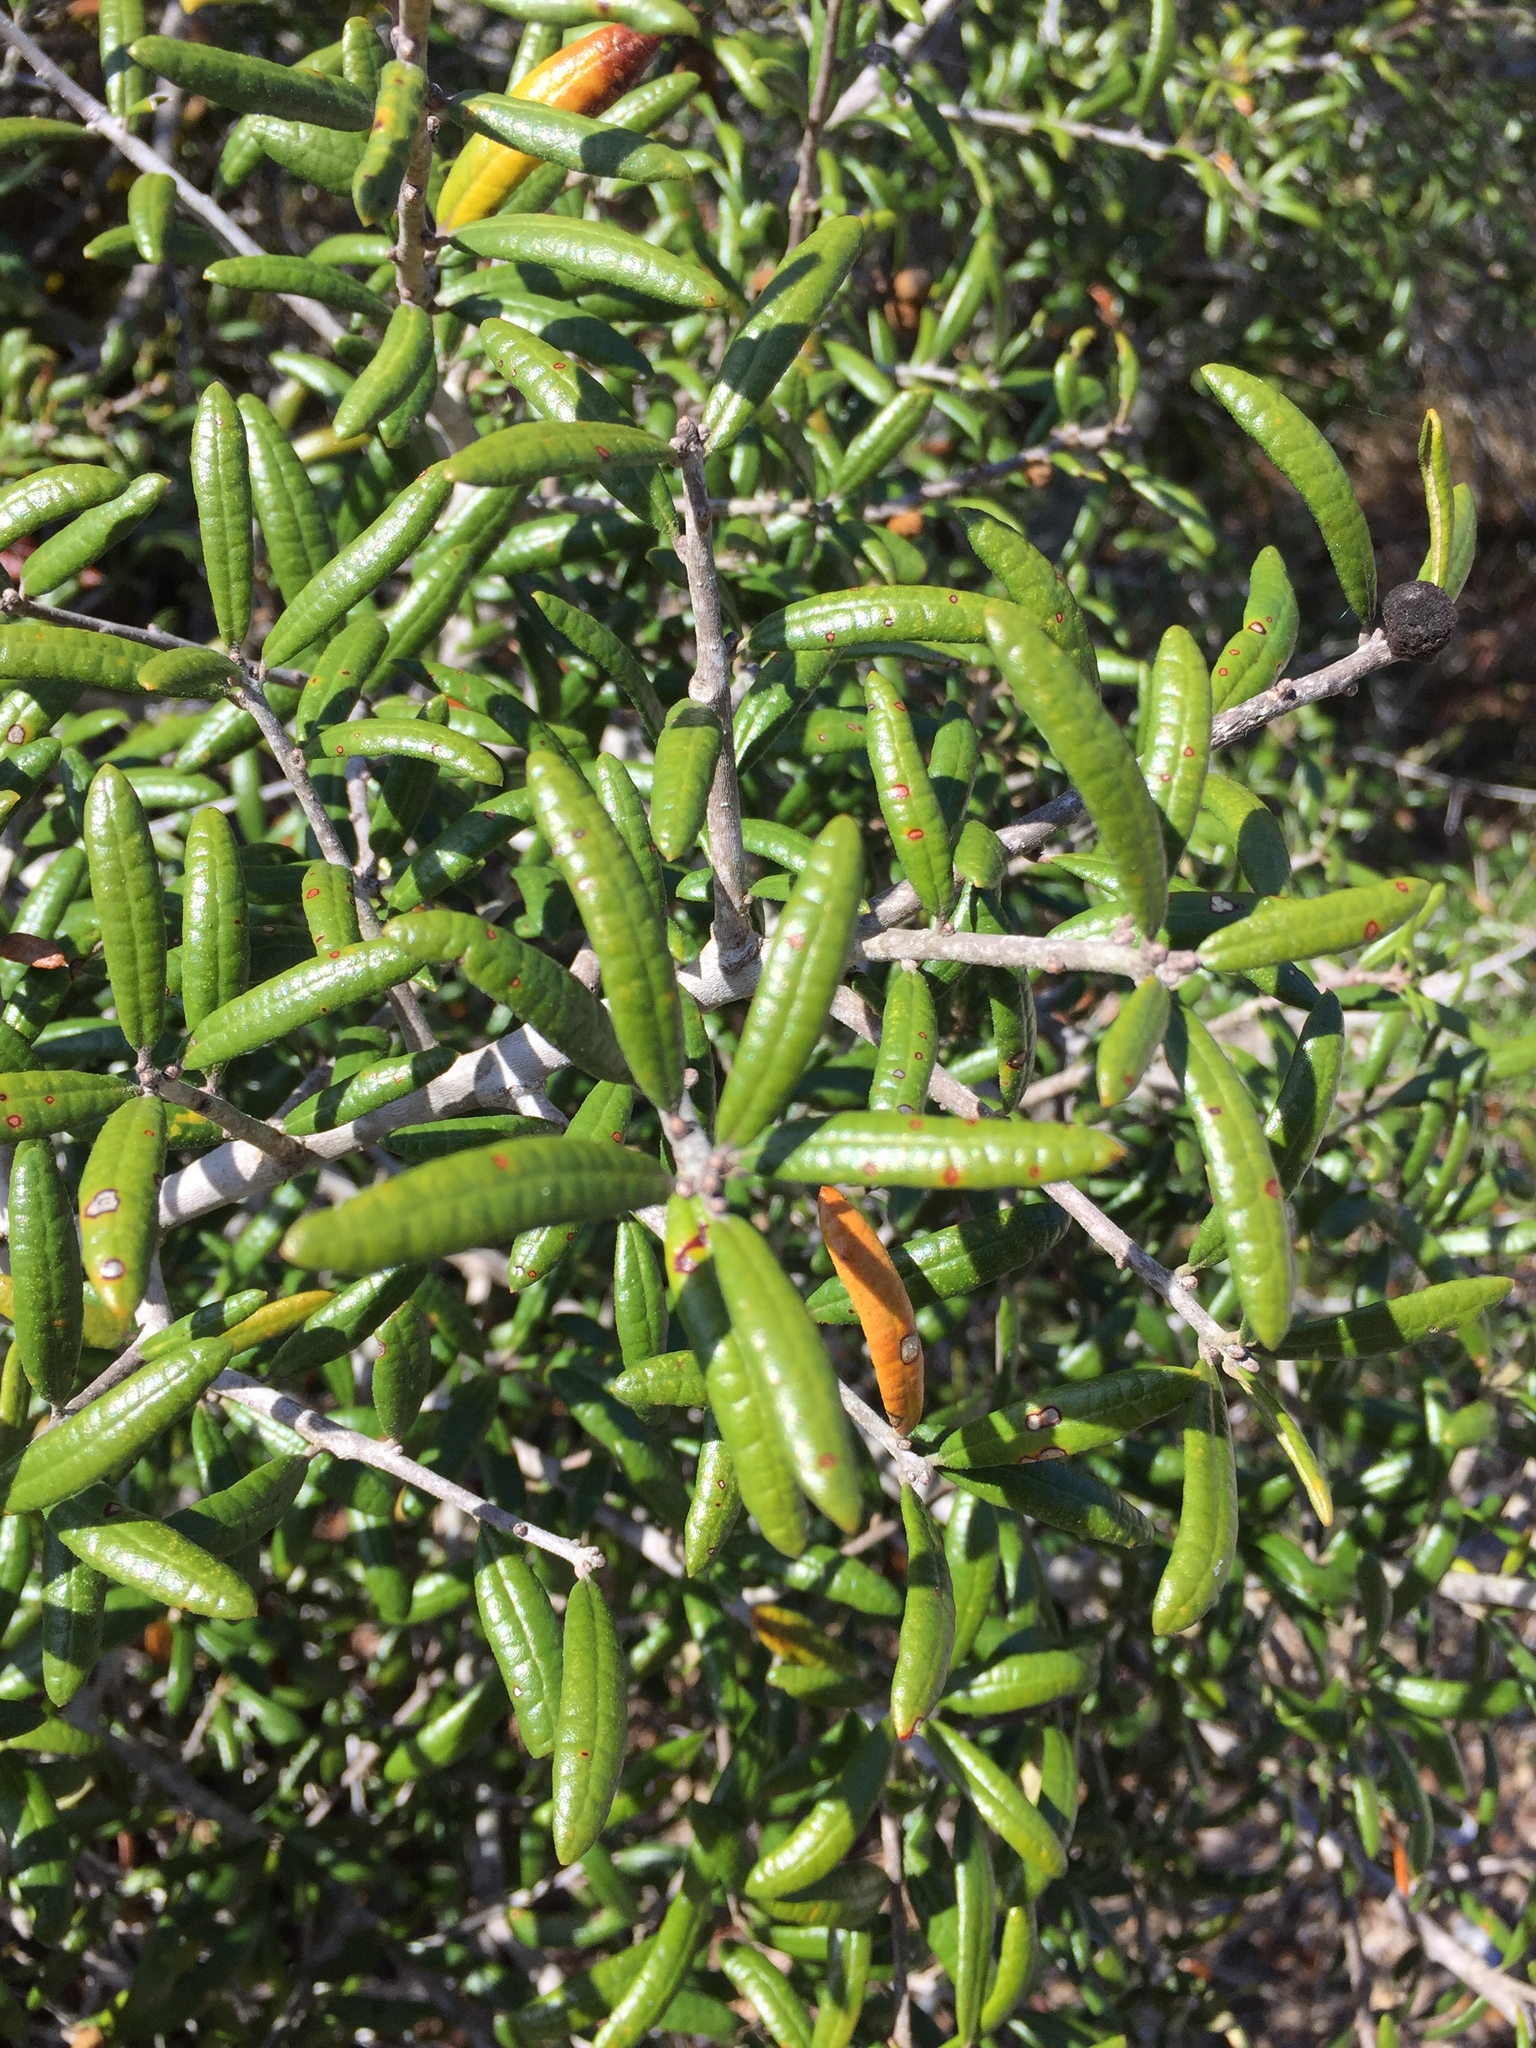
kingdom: Plantae
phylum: Tracheophyta
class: Magnoliopsida
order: Fagales
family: Fagaceae
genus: Quercus
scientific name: Quercus geminata
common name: Sand live oak
